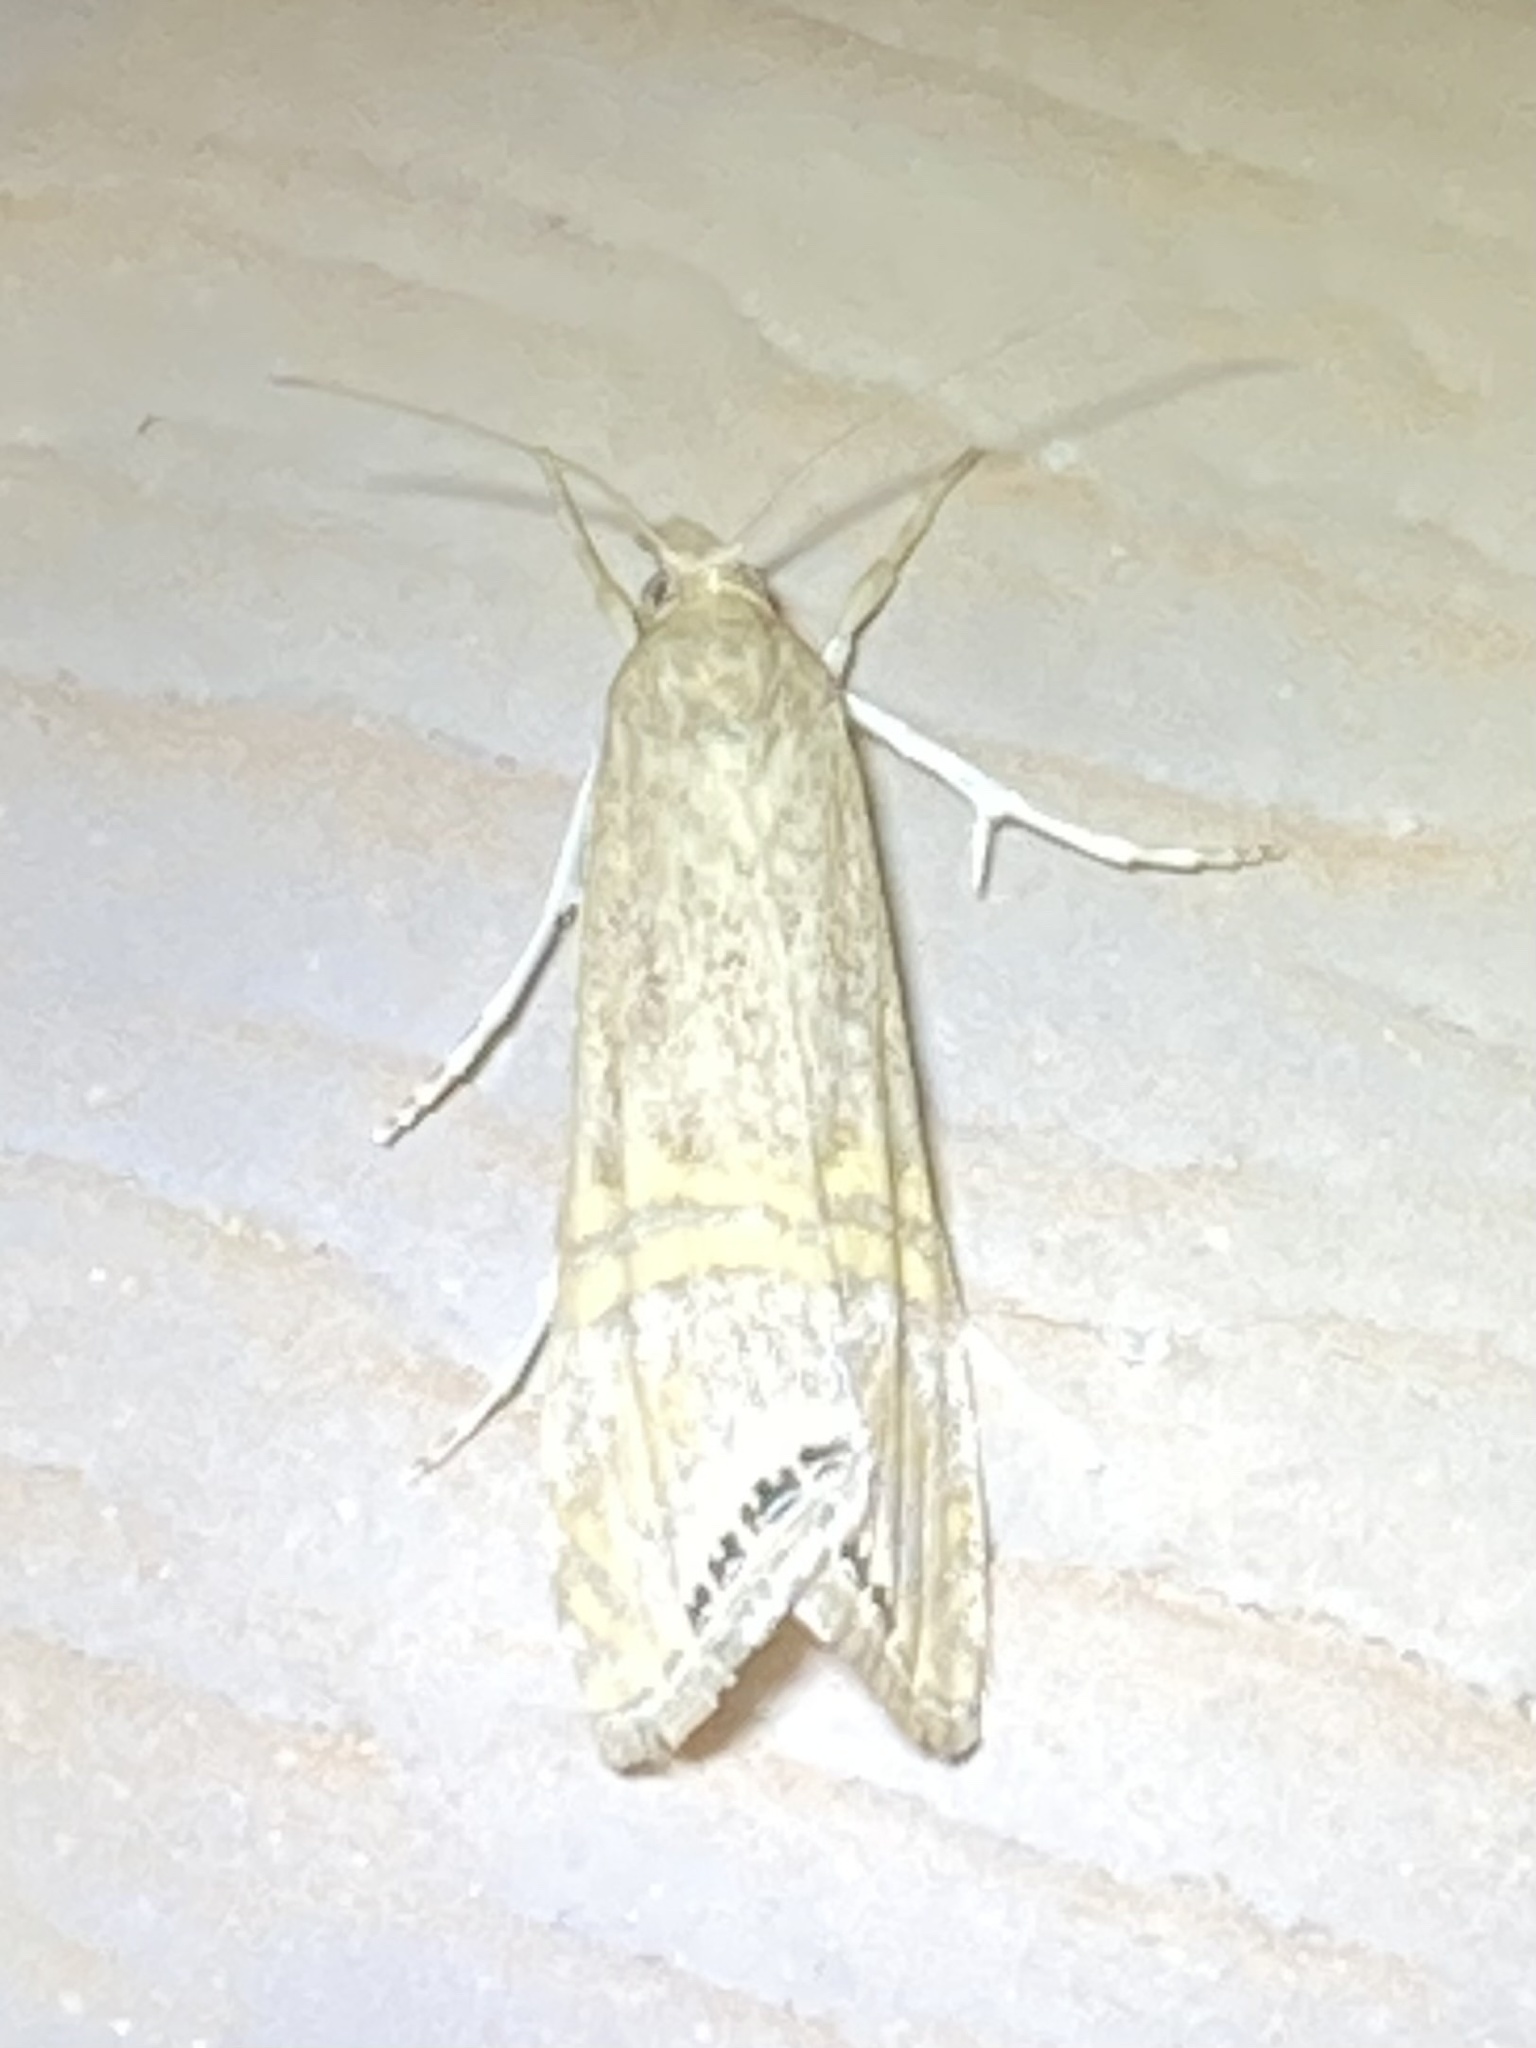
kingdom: Animalia
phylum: Arthropoda
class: Insecta
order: Lepidoptera
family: Crambidae
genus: Euchromius
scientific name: Euchromius ocellea
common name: Necklace veneer moth
